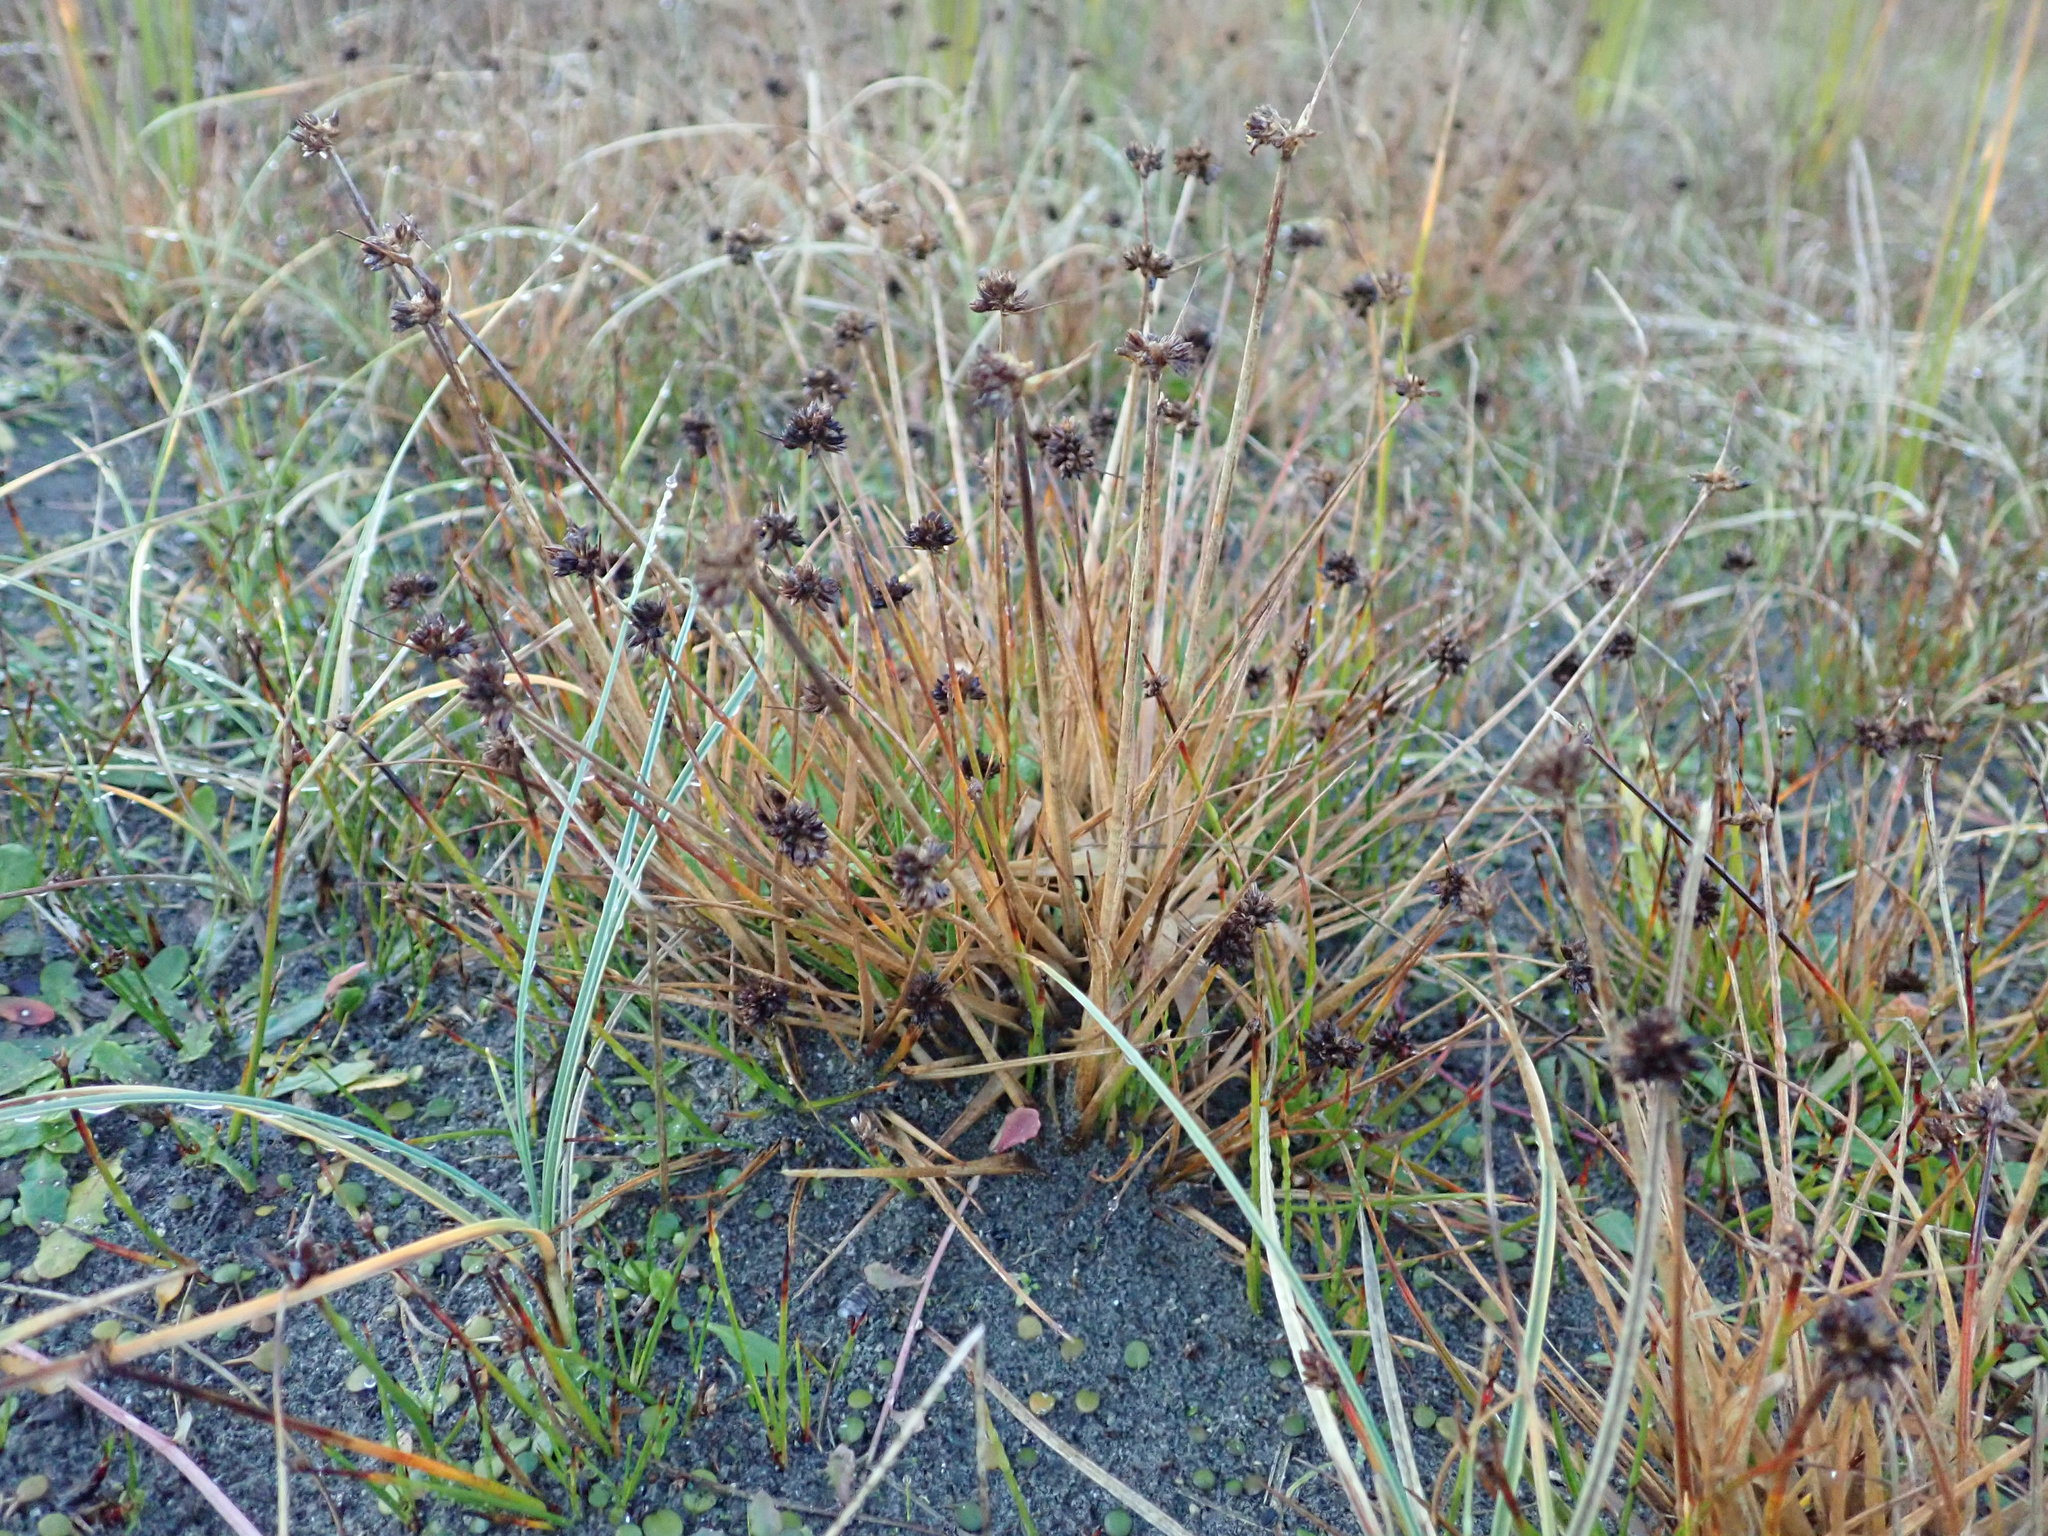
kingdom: Plantae
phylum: Tracheophyta
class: Liliopsida
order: Poales
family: Juncaceae
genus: Juncus
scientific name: Juncus caespiticius
